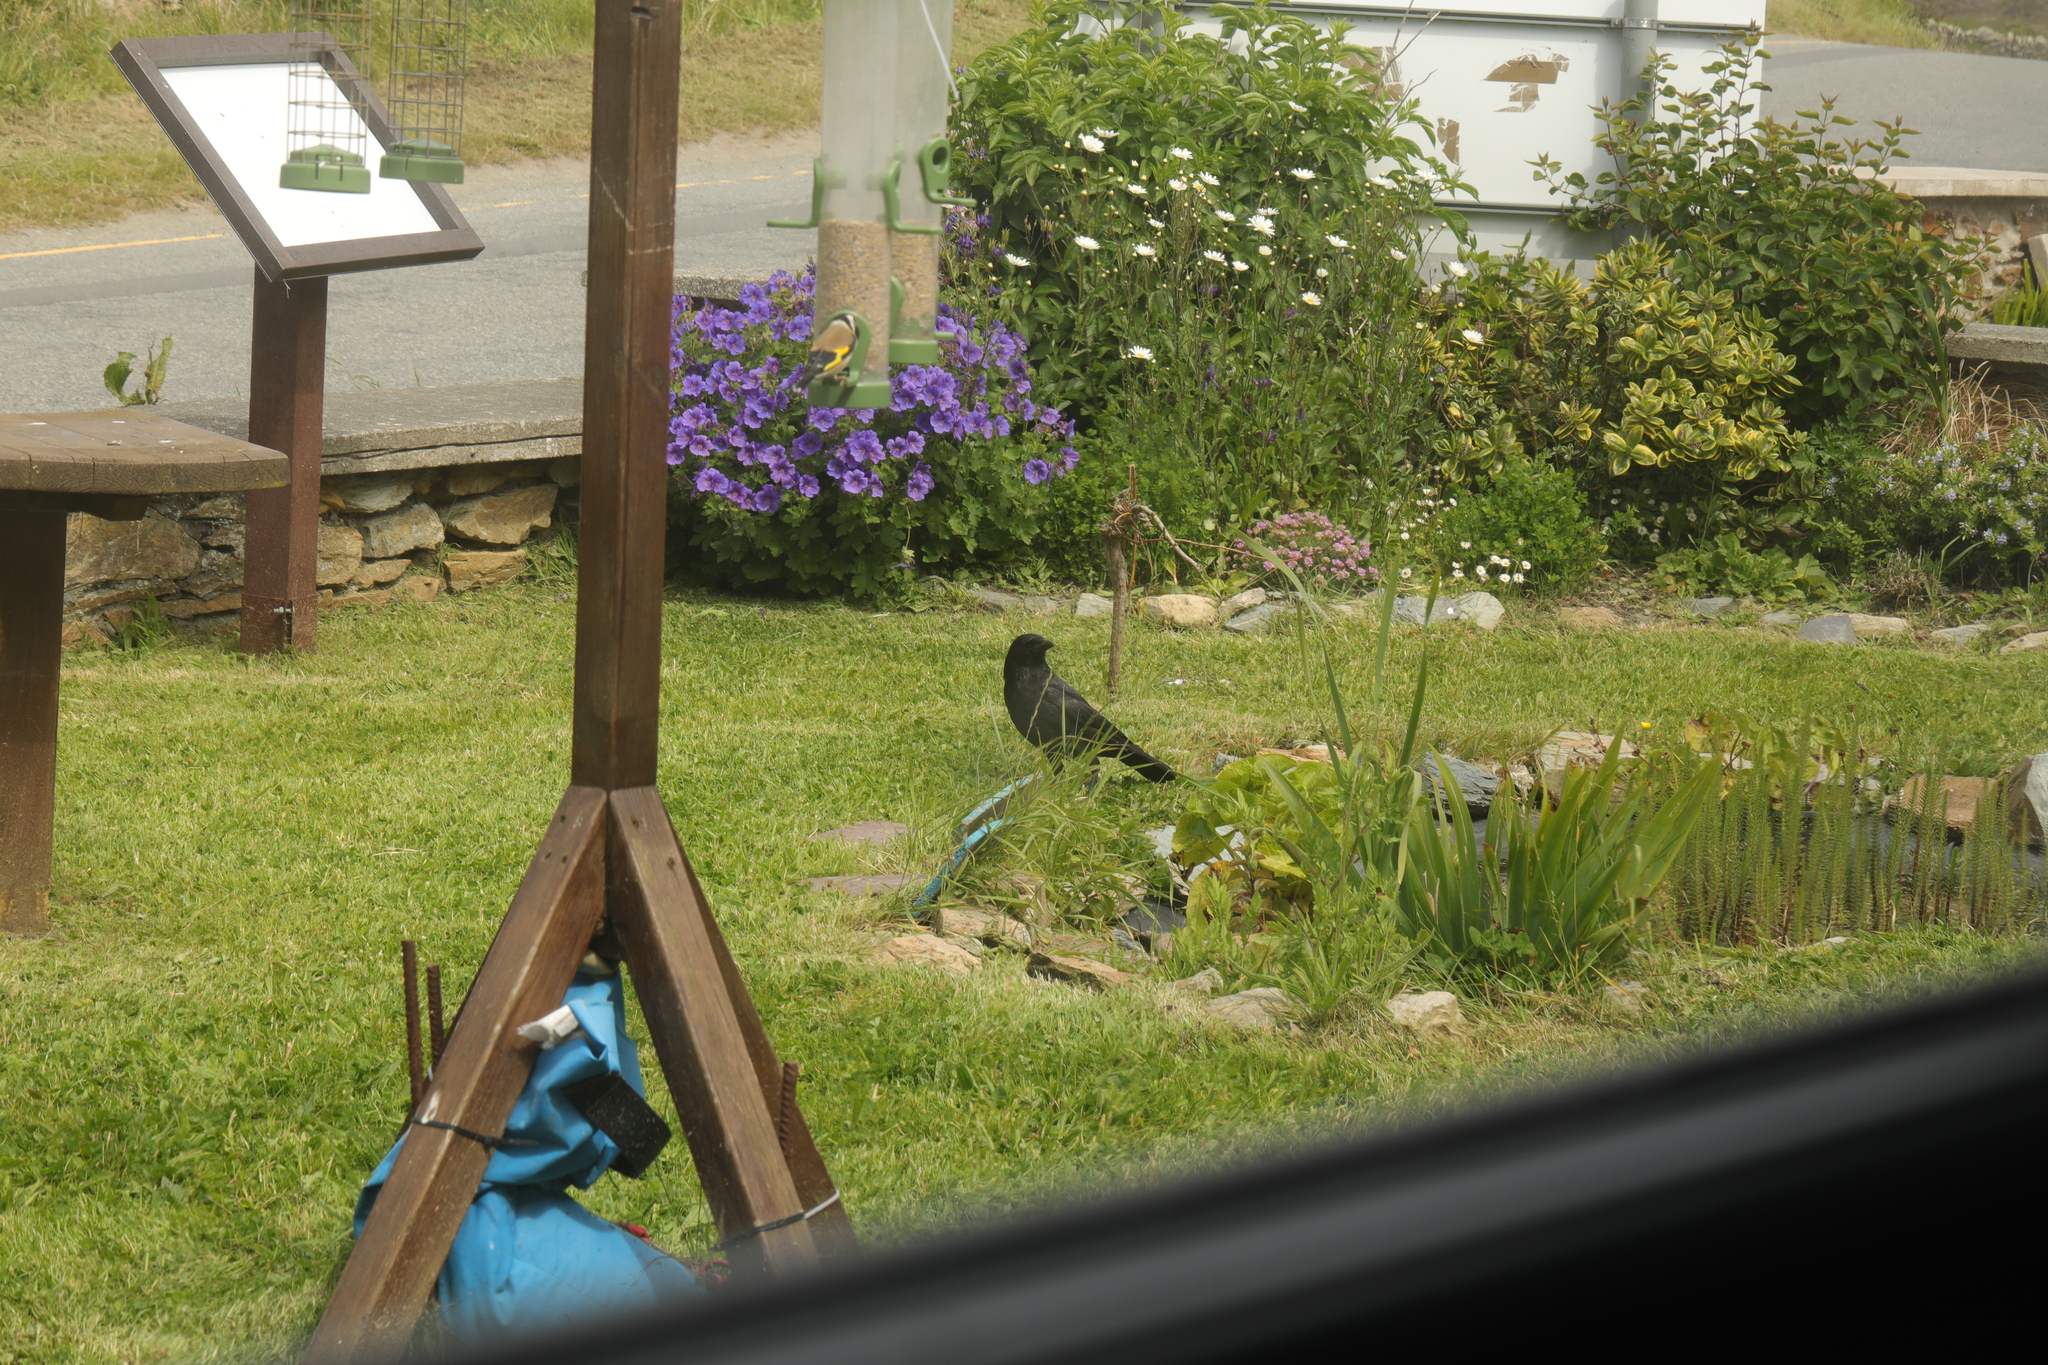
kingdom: Animalia
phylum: Chordata
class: Aves
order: Passeriformes
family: Corvidae
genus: Corvus
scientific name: Corvus corone
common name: Carrion crow
